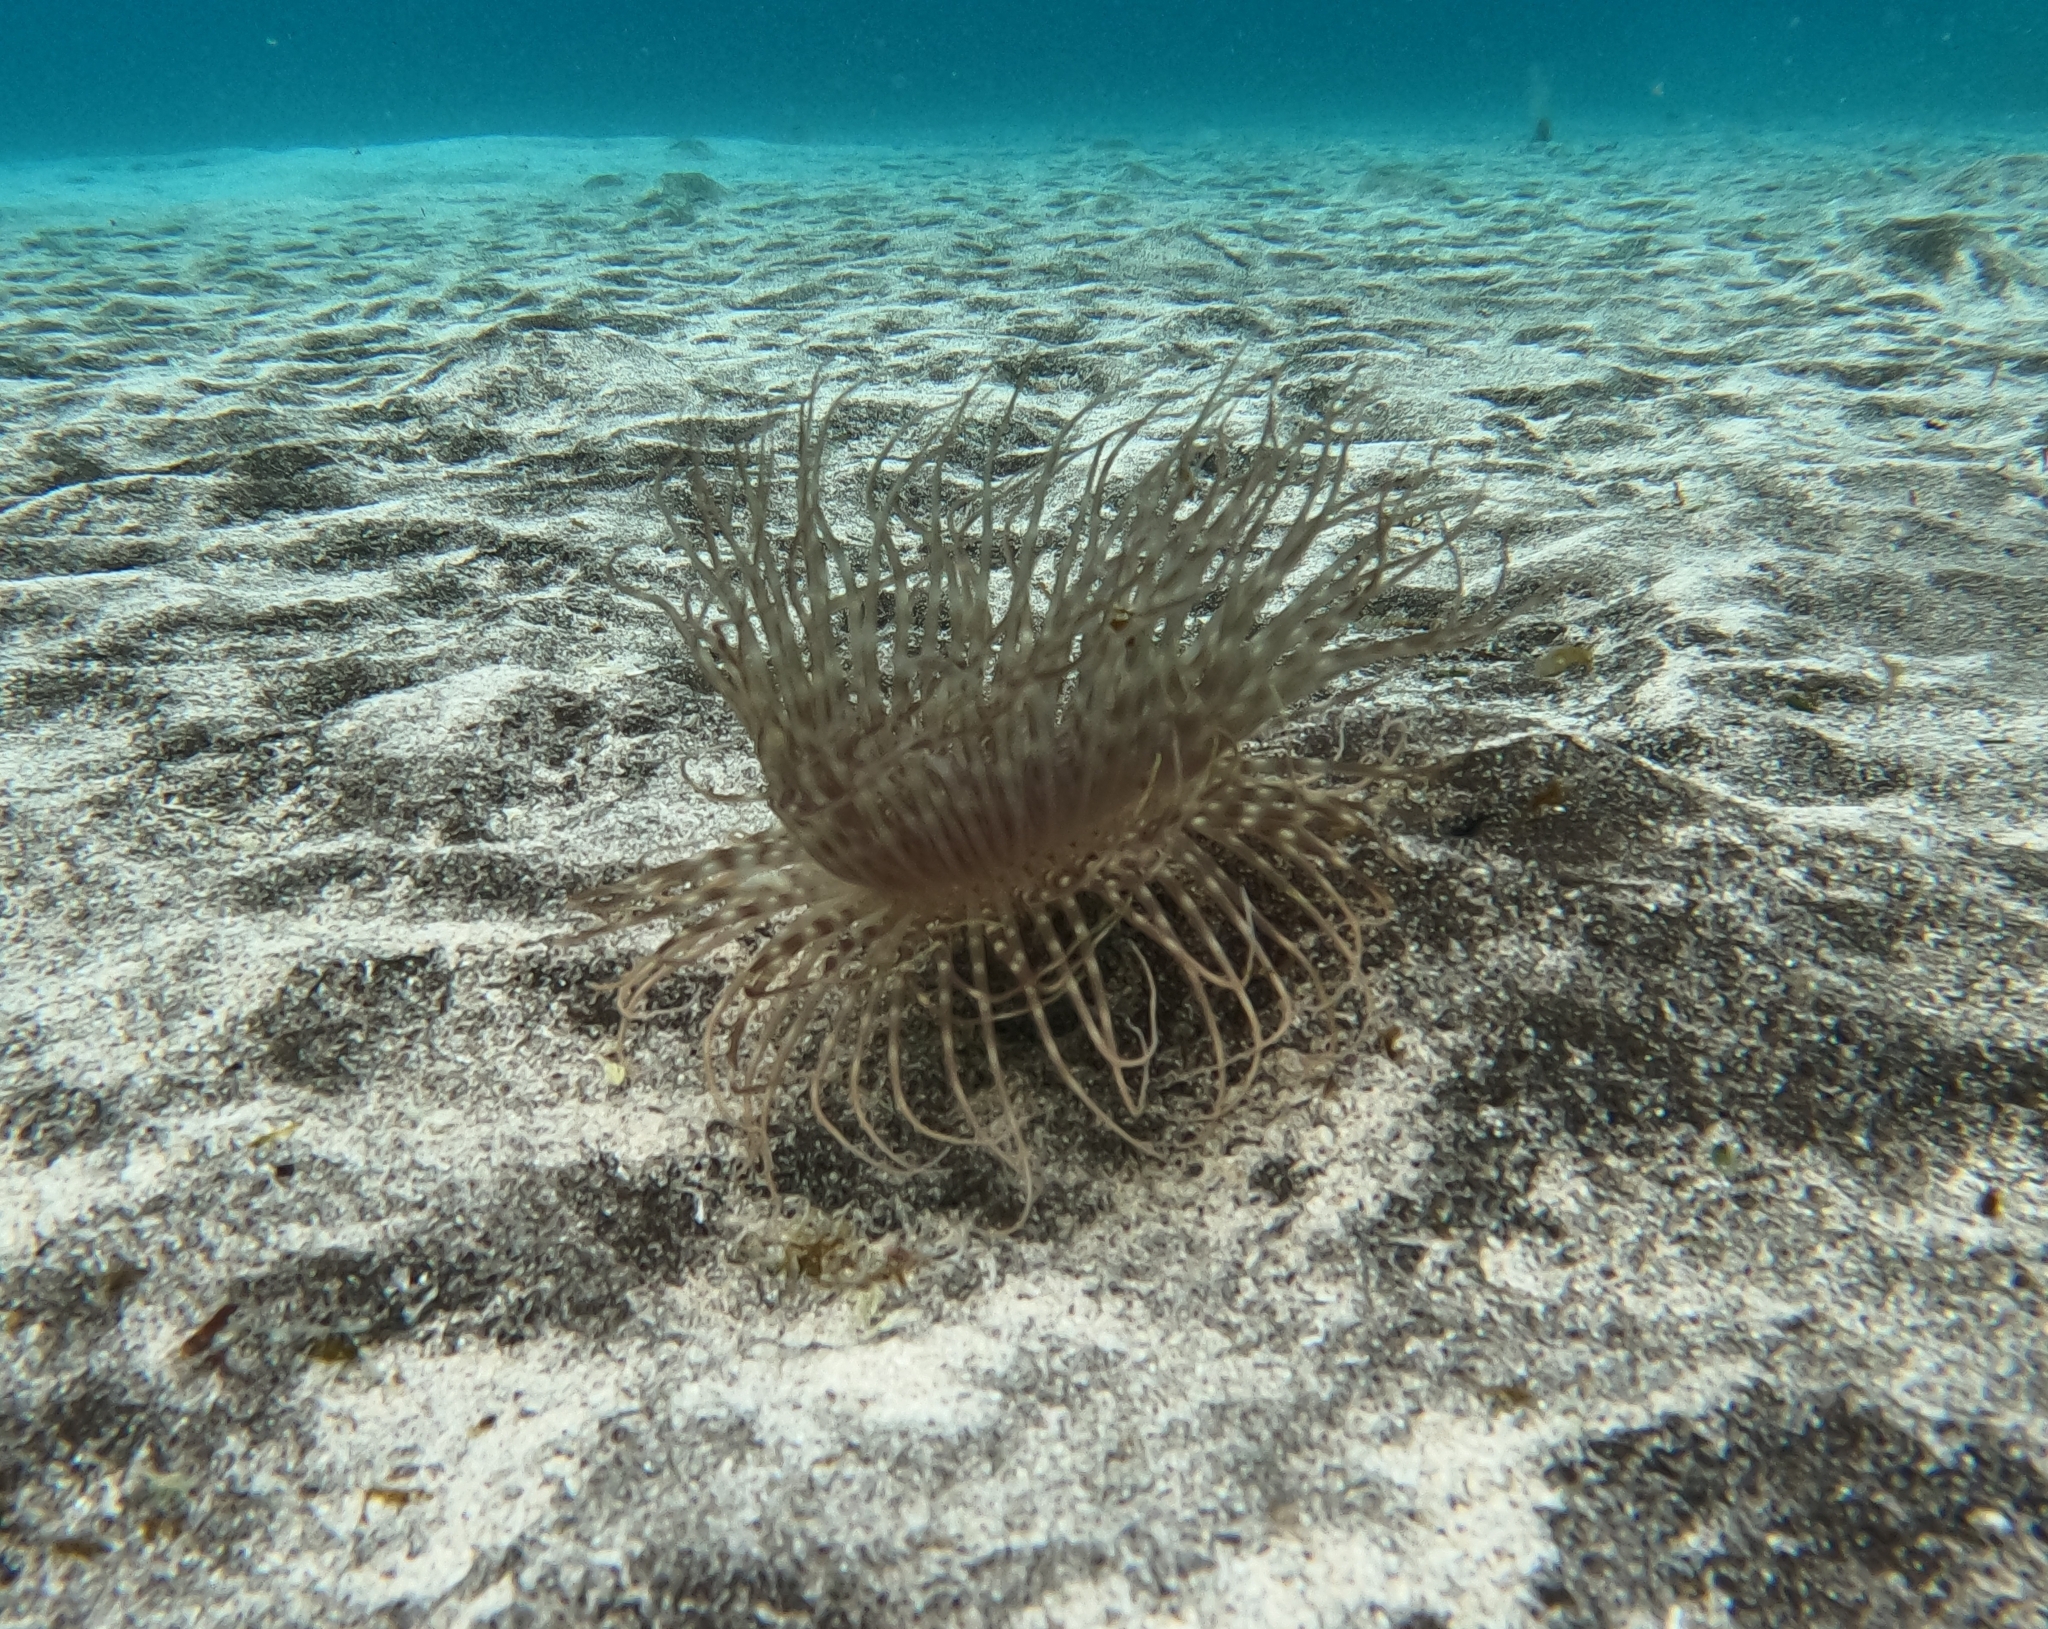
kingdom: Animalia
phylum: Cnidaria
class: Anthozoa
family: Cerianthidae
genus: Pachycerianthus
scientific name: Pachycerianthus solitarius
